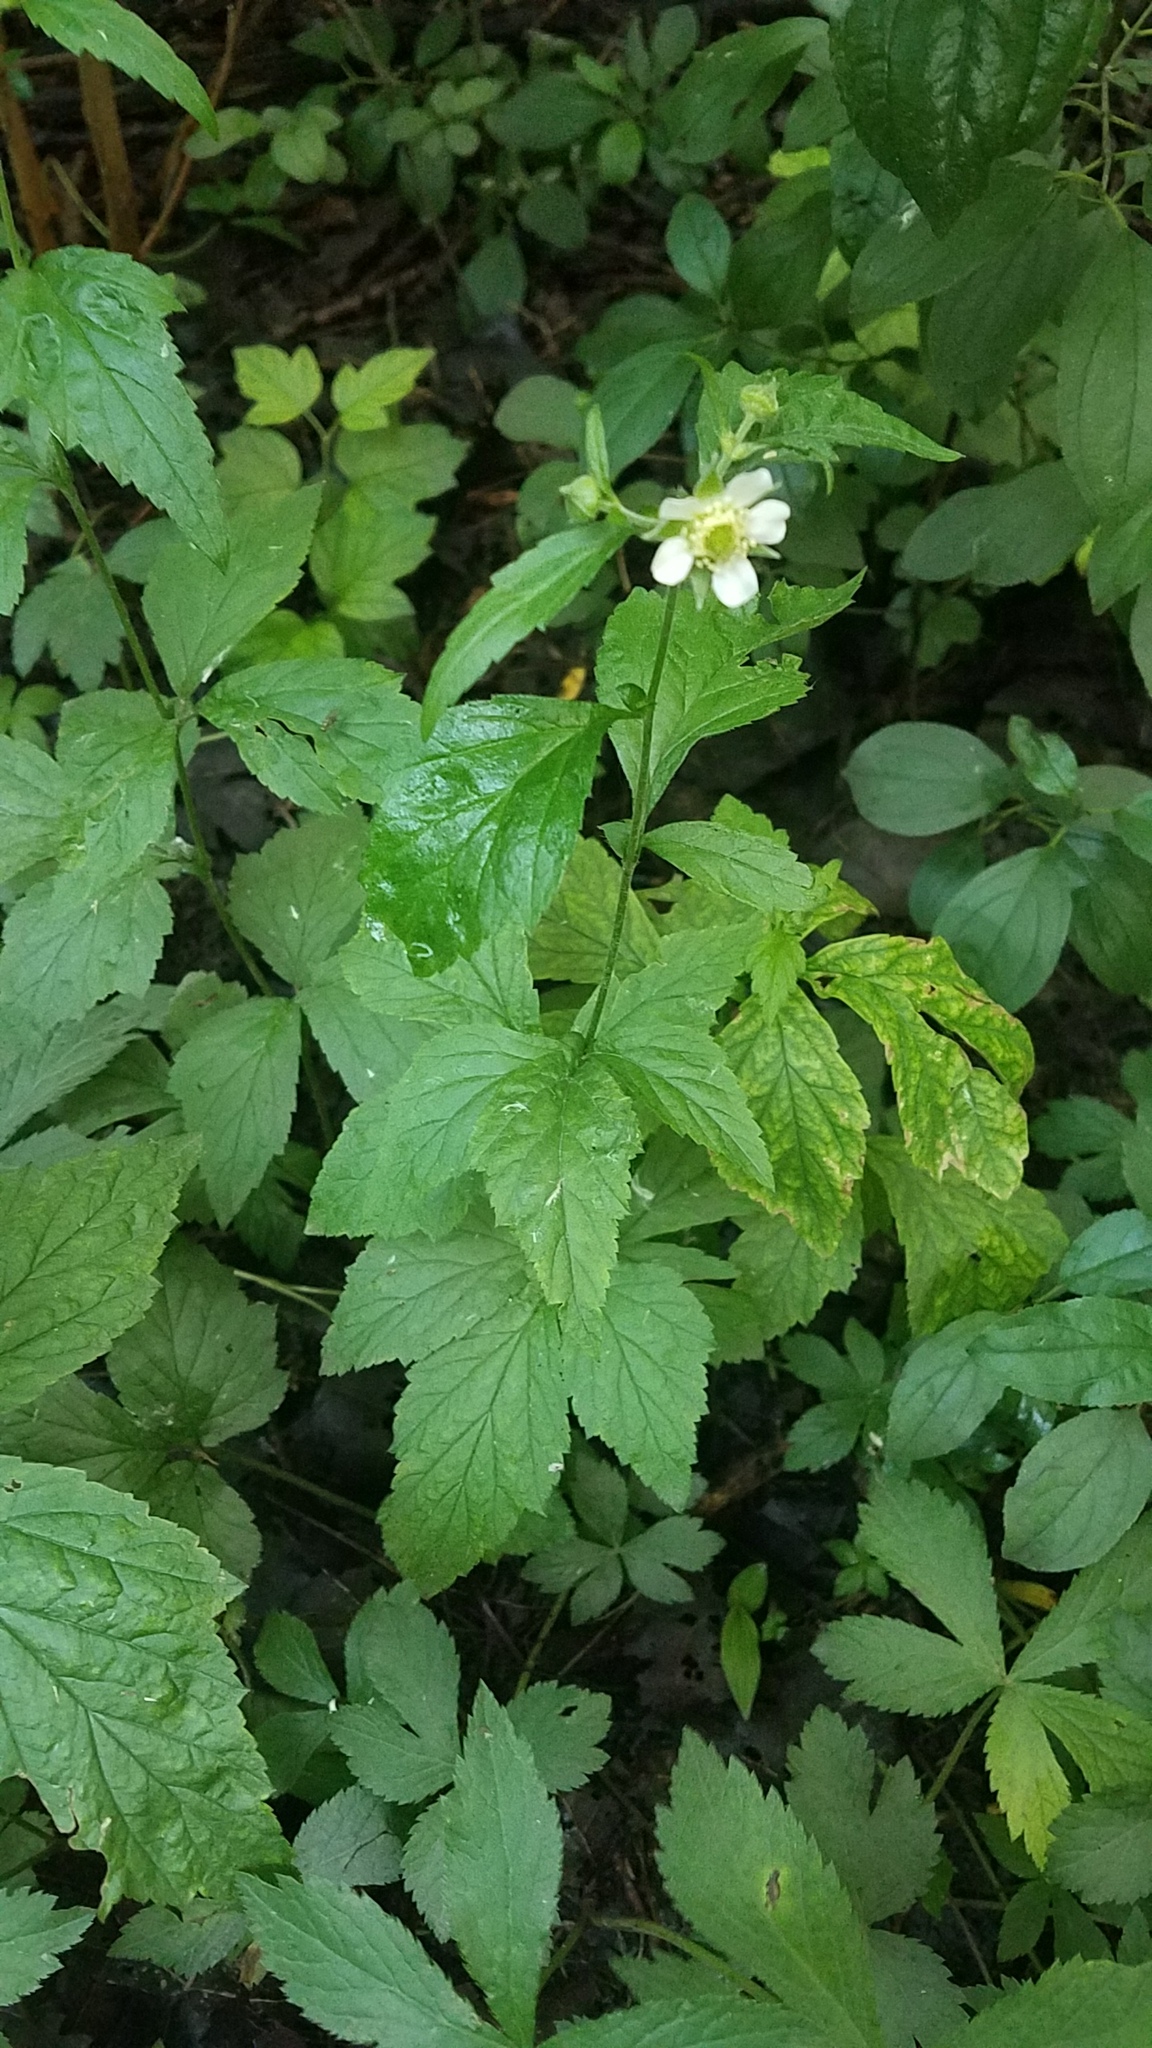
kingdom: Plantae
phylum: Tracheophyta
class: Magnoliopsida
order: Rosales
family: Rosaceae
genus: Geum
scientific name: Geum canadense
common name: White avens
